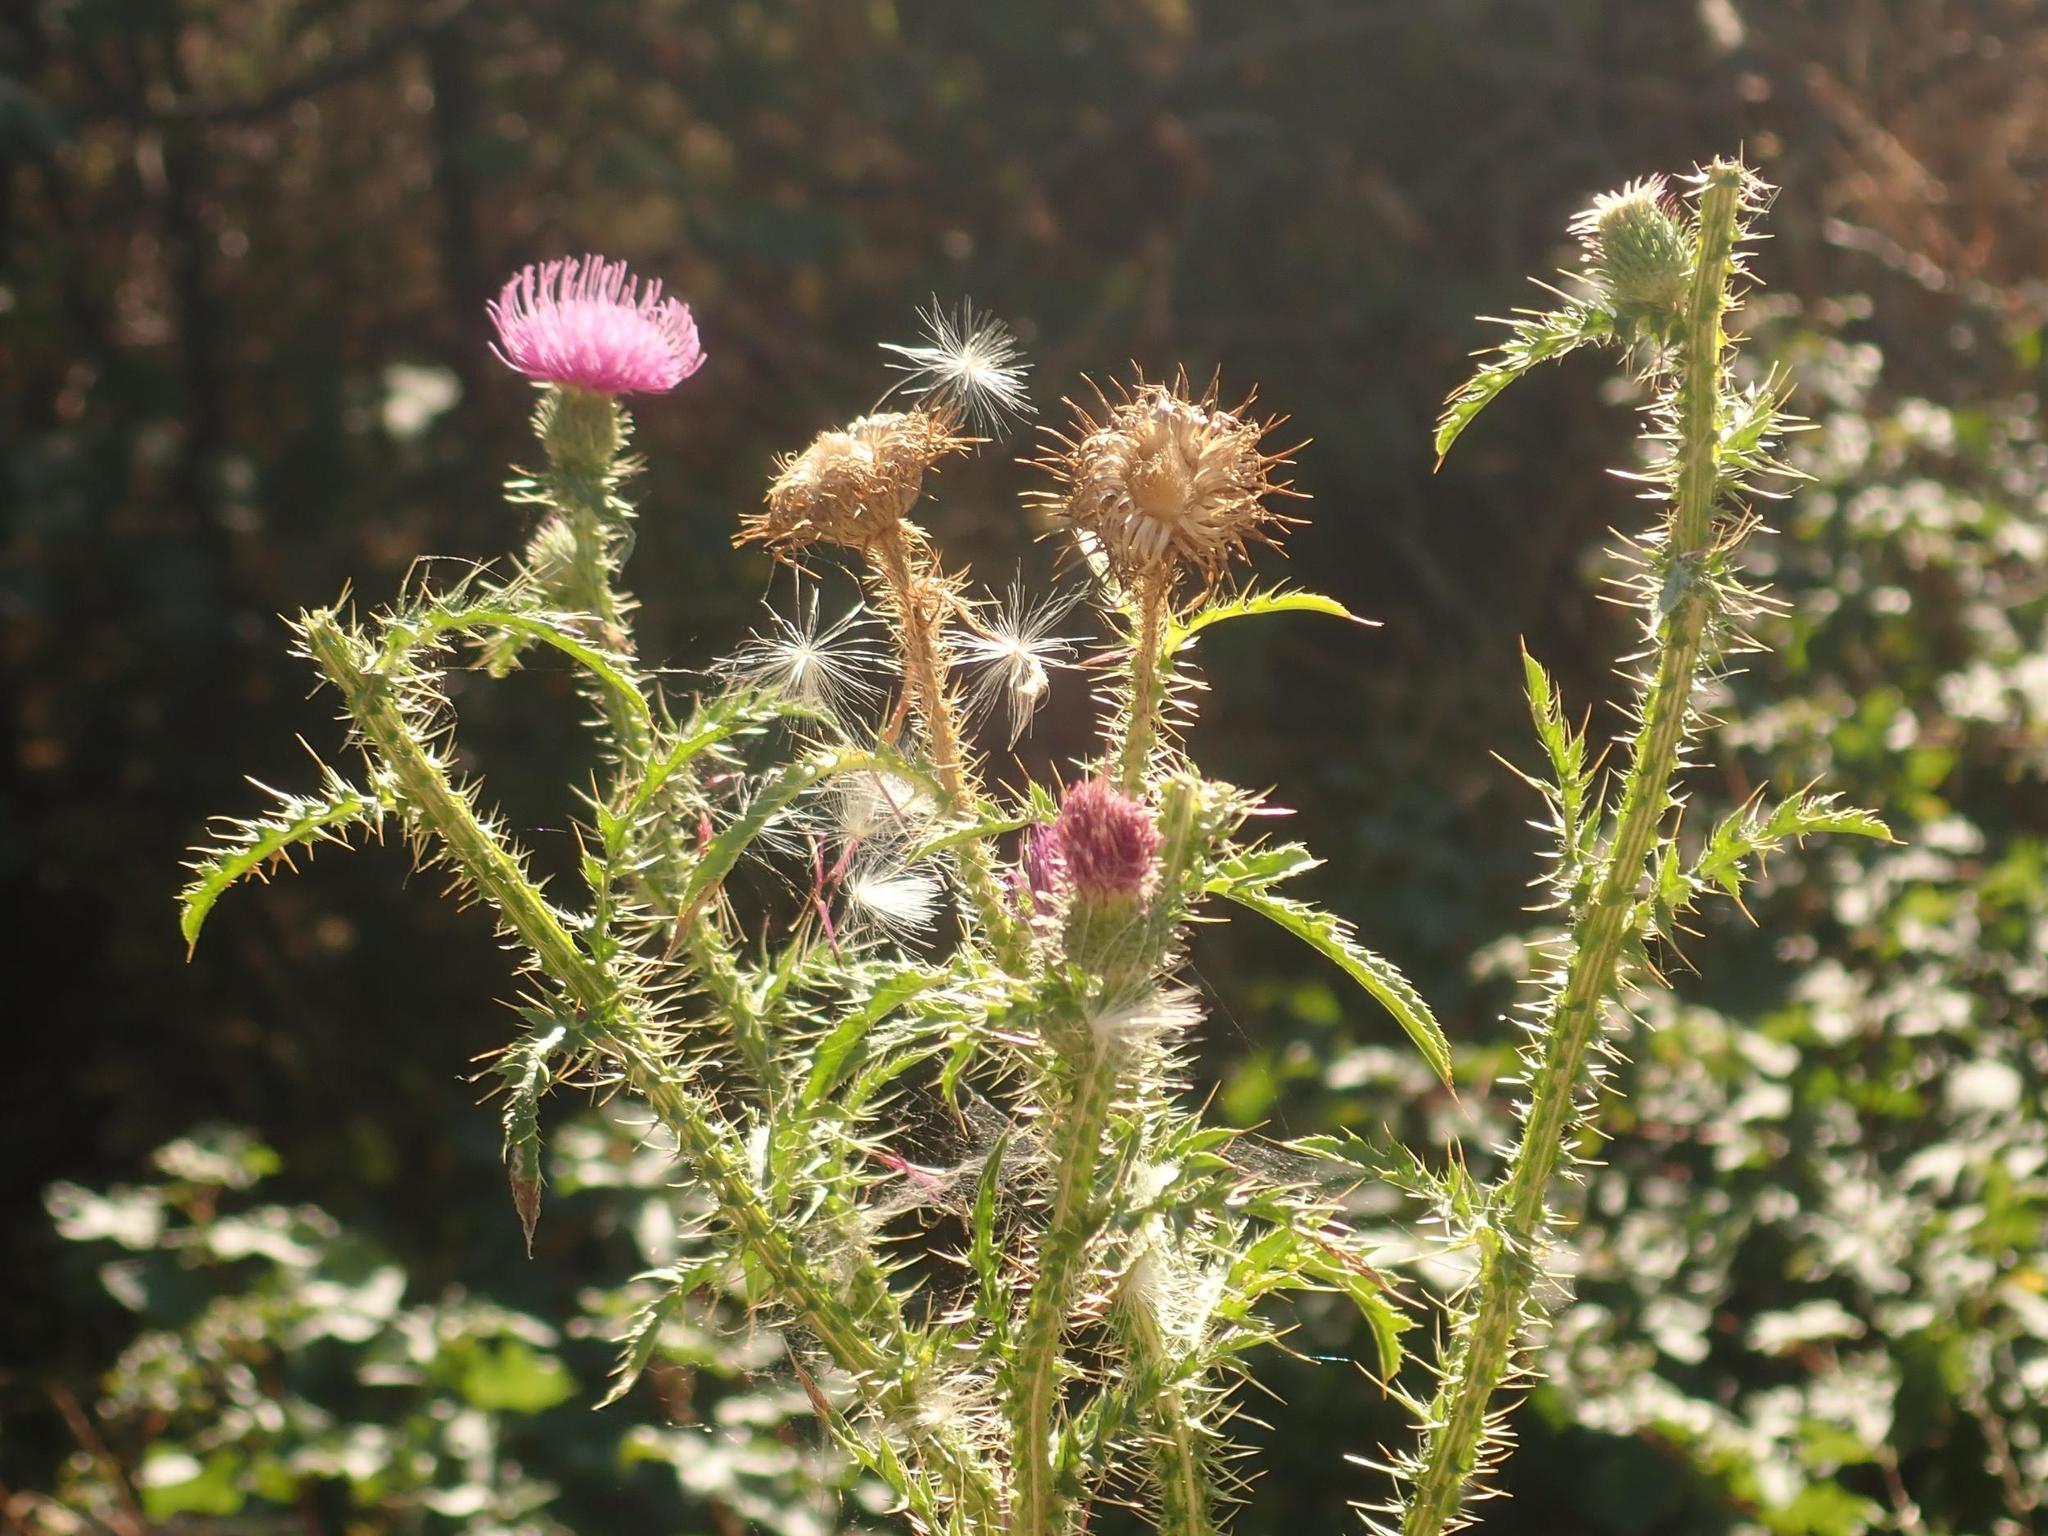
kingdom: Plantae
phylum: Tracheophyta
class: Magnoliopsida
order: Asterales
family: Asteraceae
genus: Carduus
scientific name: Carduus acanthoides
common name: Plumeless thistle
